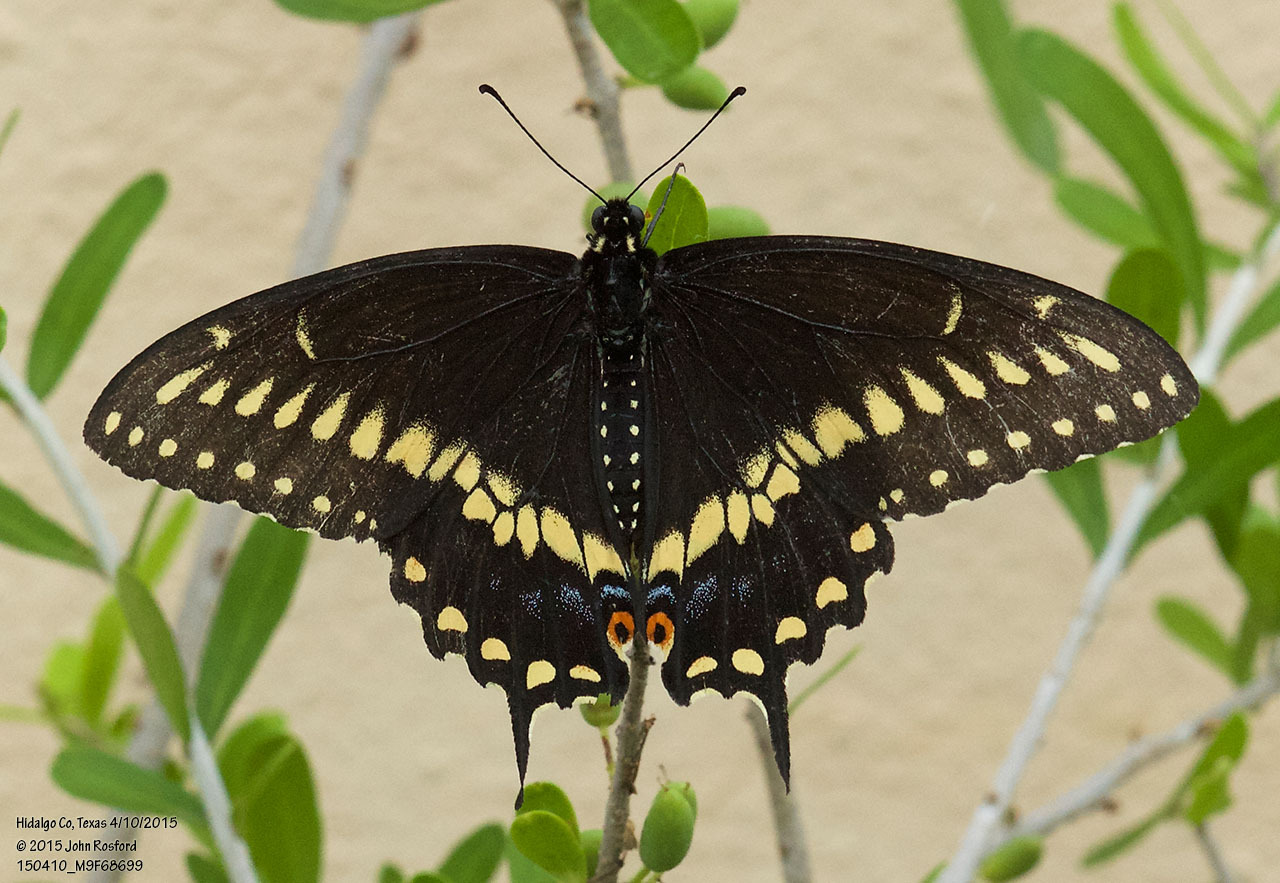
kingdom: Animalia
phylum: Arthropoda
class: Insecta
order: Lepidoptera
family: Papilionidae
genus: Papilio
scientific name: Papilio polyxenes
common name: Black swallowtail
